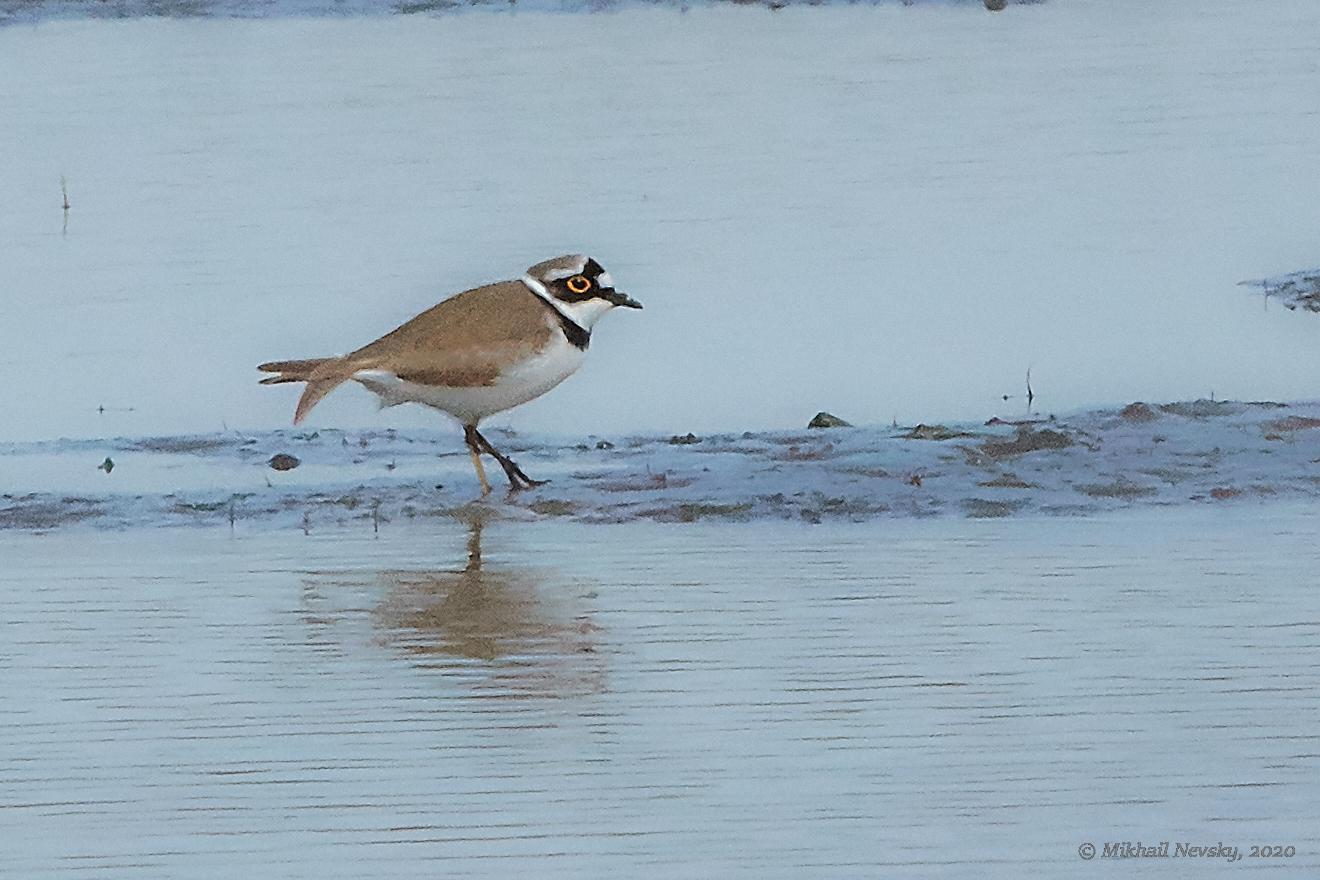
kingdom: Animalia
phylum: Chordata
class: Aves
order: Charadriiformes
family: Charadriidae
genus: Charadrius
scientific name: Charadrius dubius
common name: Little ringed plover
